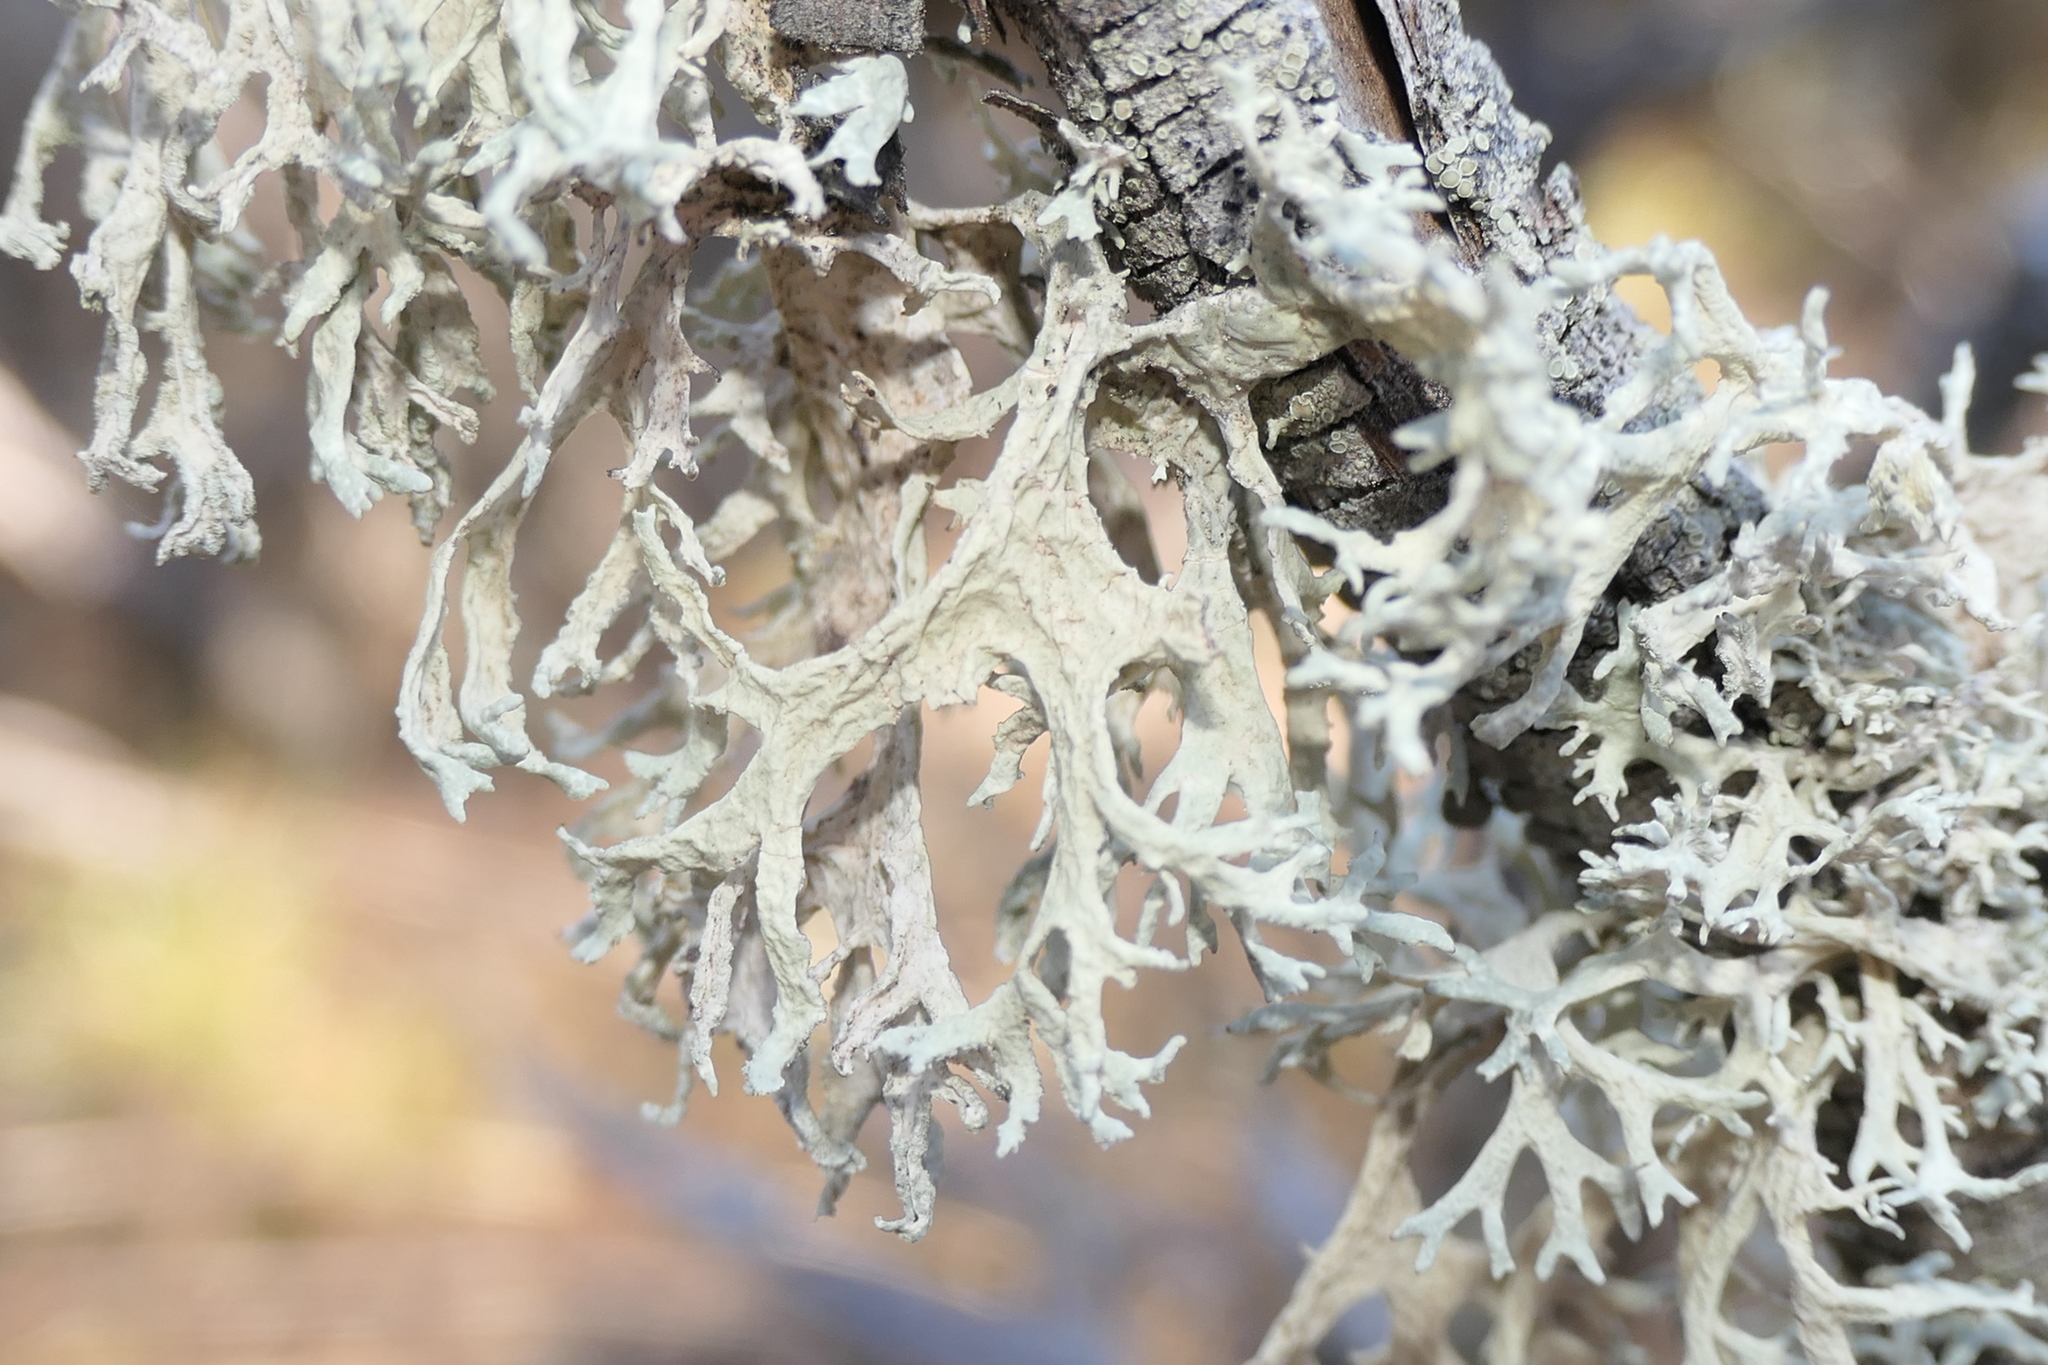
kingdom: Fungi
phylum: Ascomycota
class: Lecanoromycetes
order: Lecanorales
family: Parmeliaceae
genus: Evernia
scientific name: Evernia prunastri
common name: Oak moss
